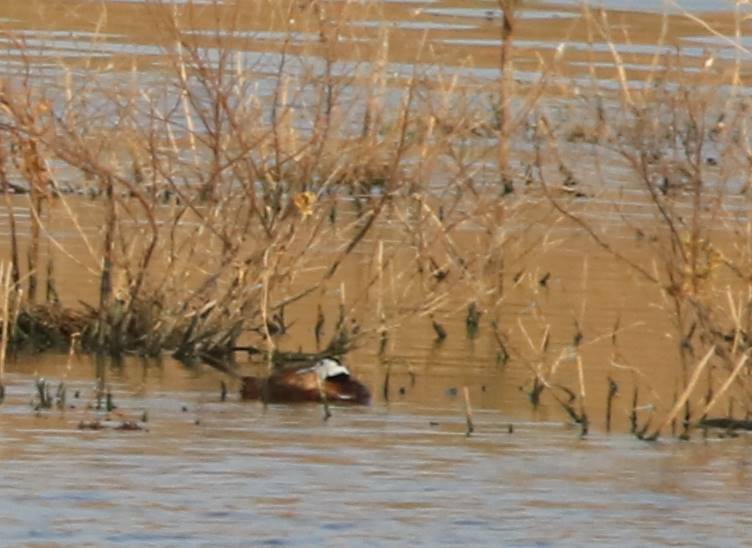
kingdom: Animalia
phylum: Chordata
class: Aves
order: Anseriformes
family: Anatidae
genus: Oxyura
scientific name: Oxyura leucocephala
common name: White-headed duck
